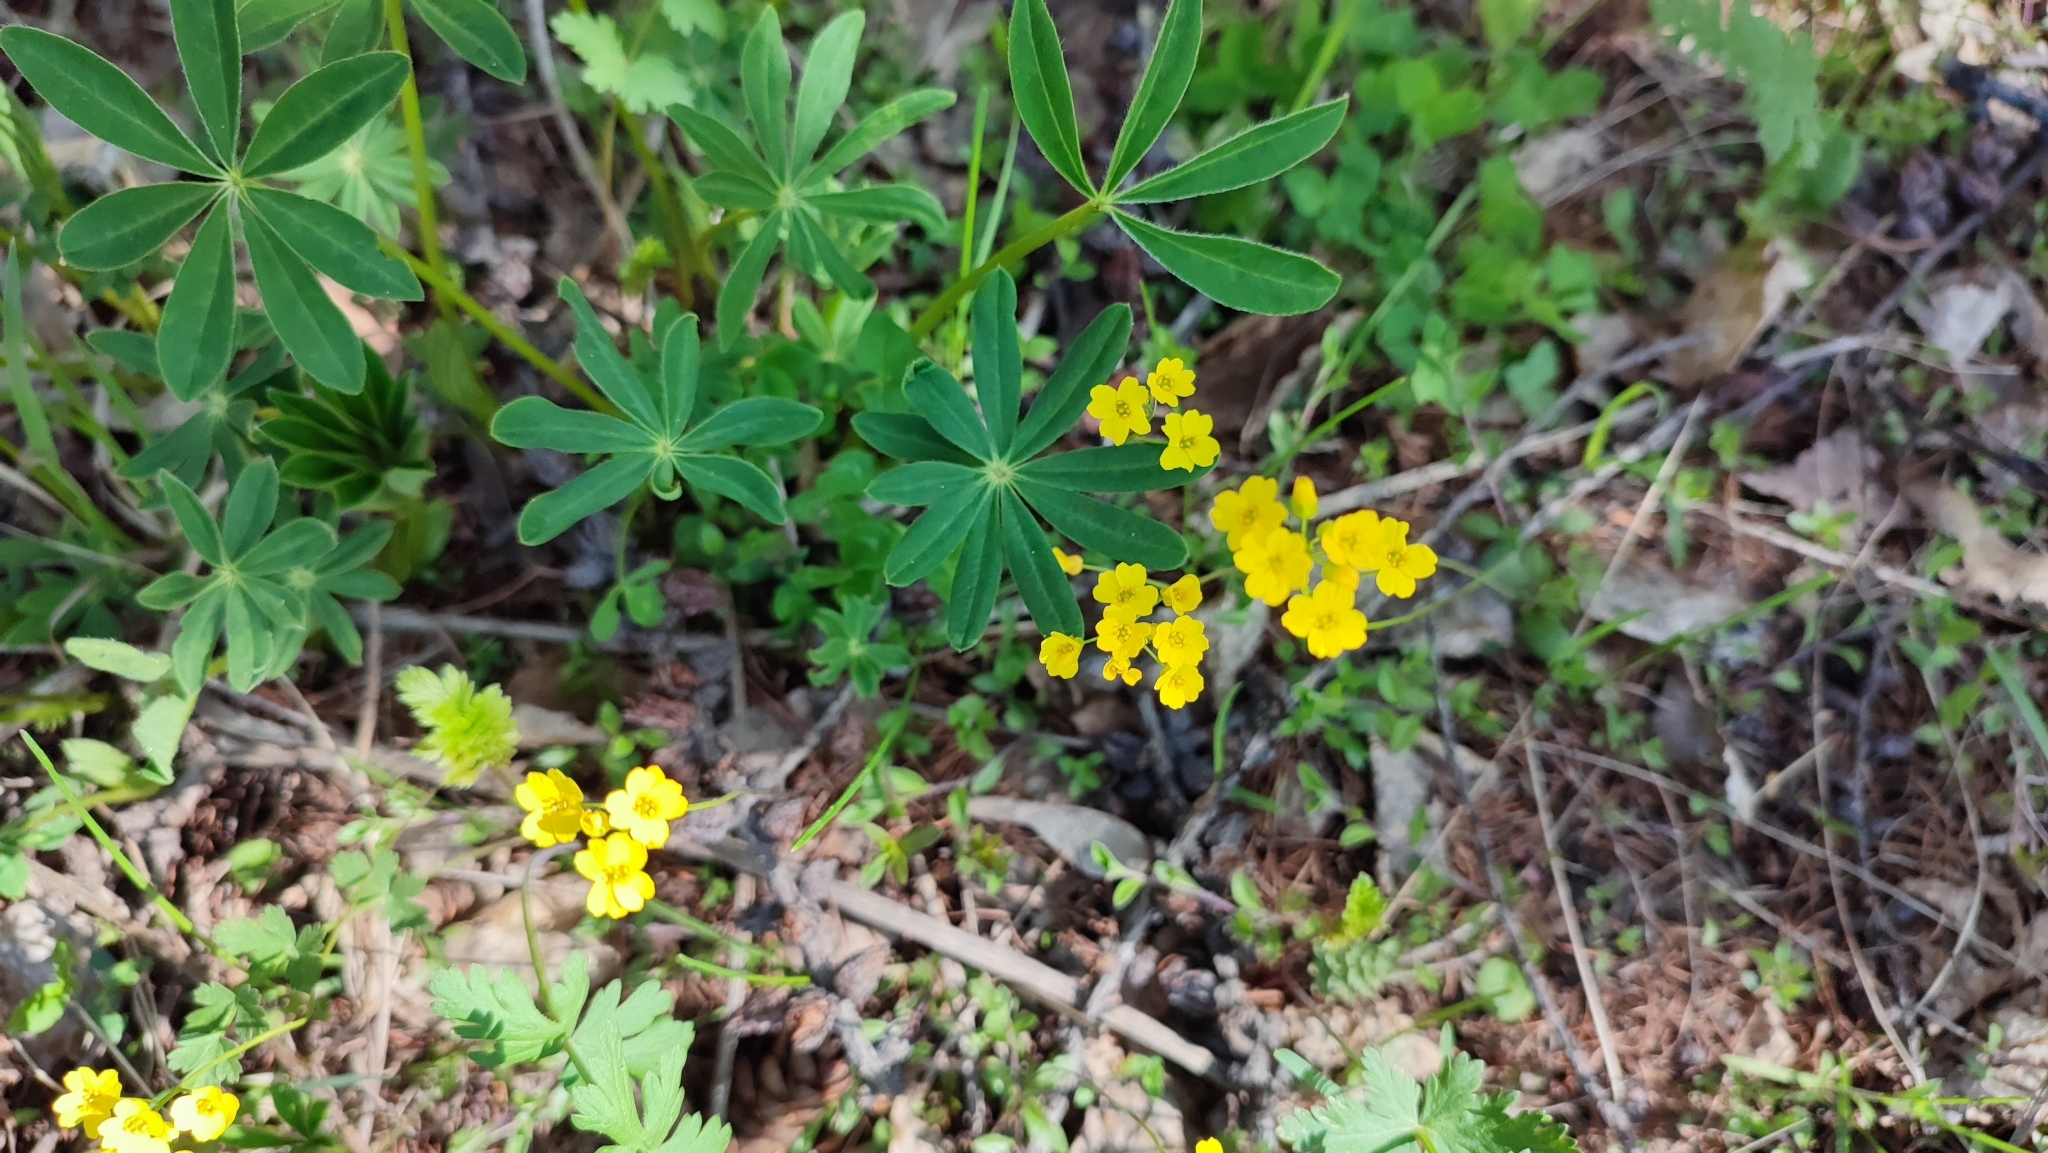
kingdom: Plantae
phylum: Tracheophyta
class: Magnoliopsida
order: Brassicales
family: Brassicaceae
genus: Draba
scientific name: Draba sibirica
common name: Siberian draba
